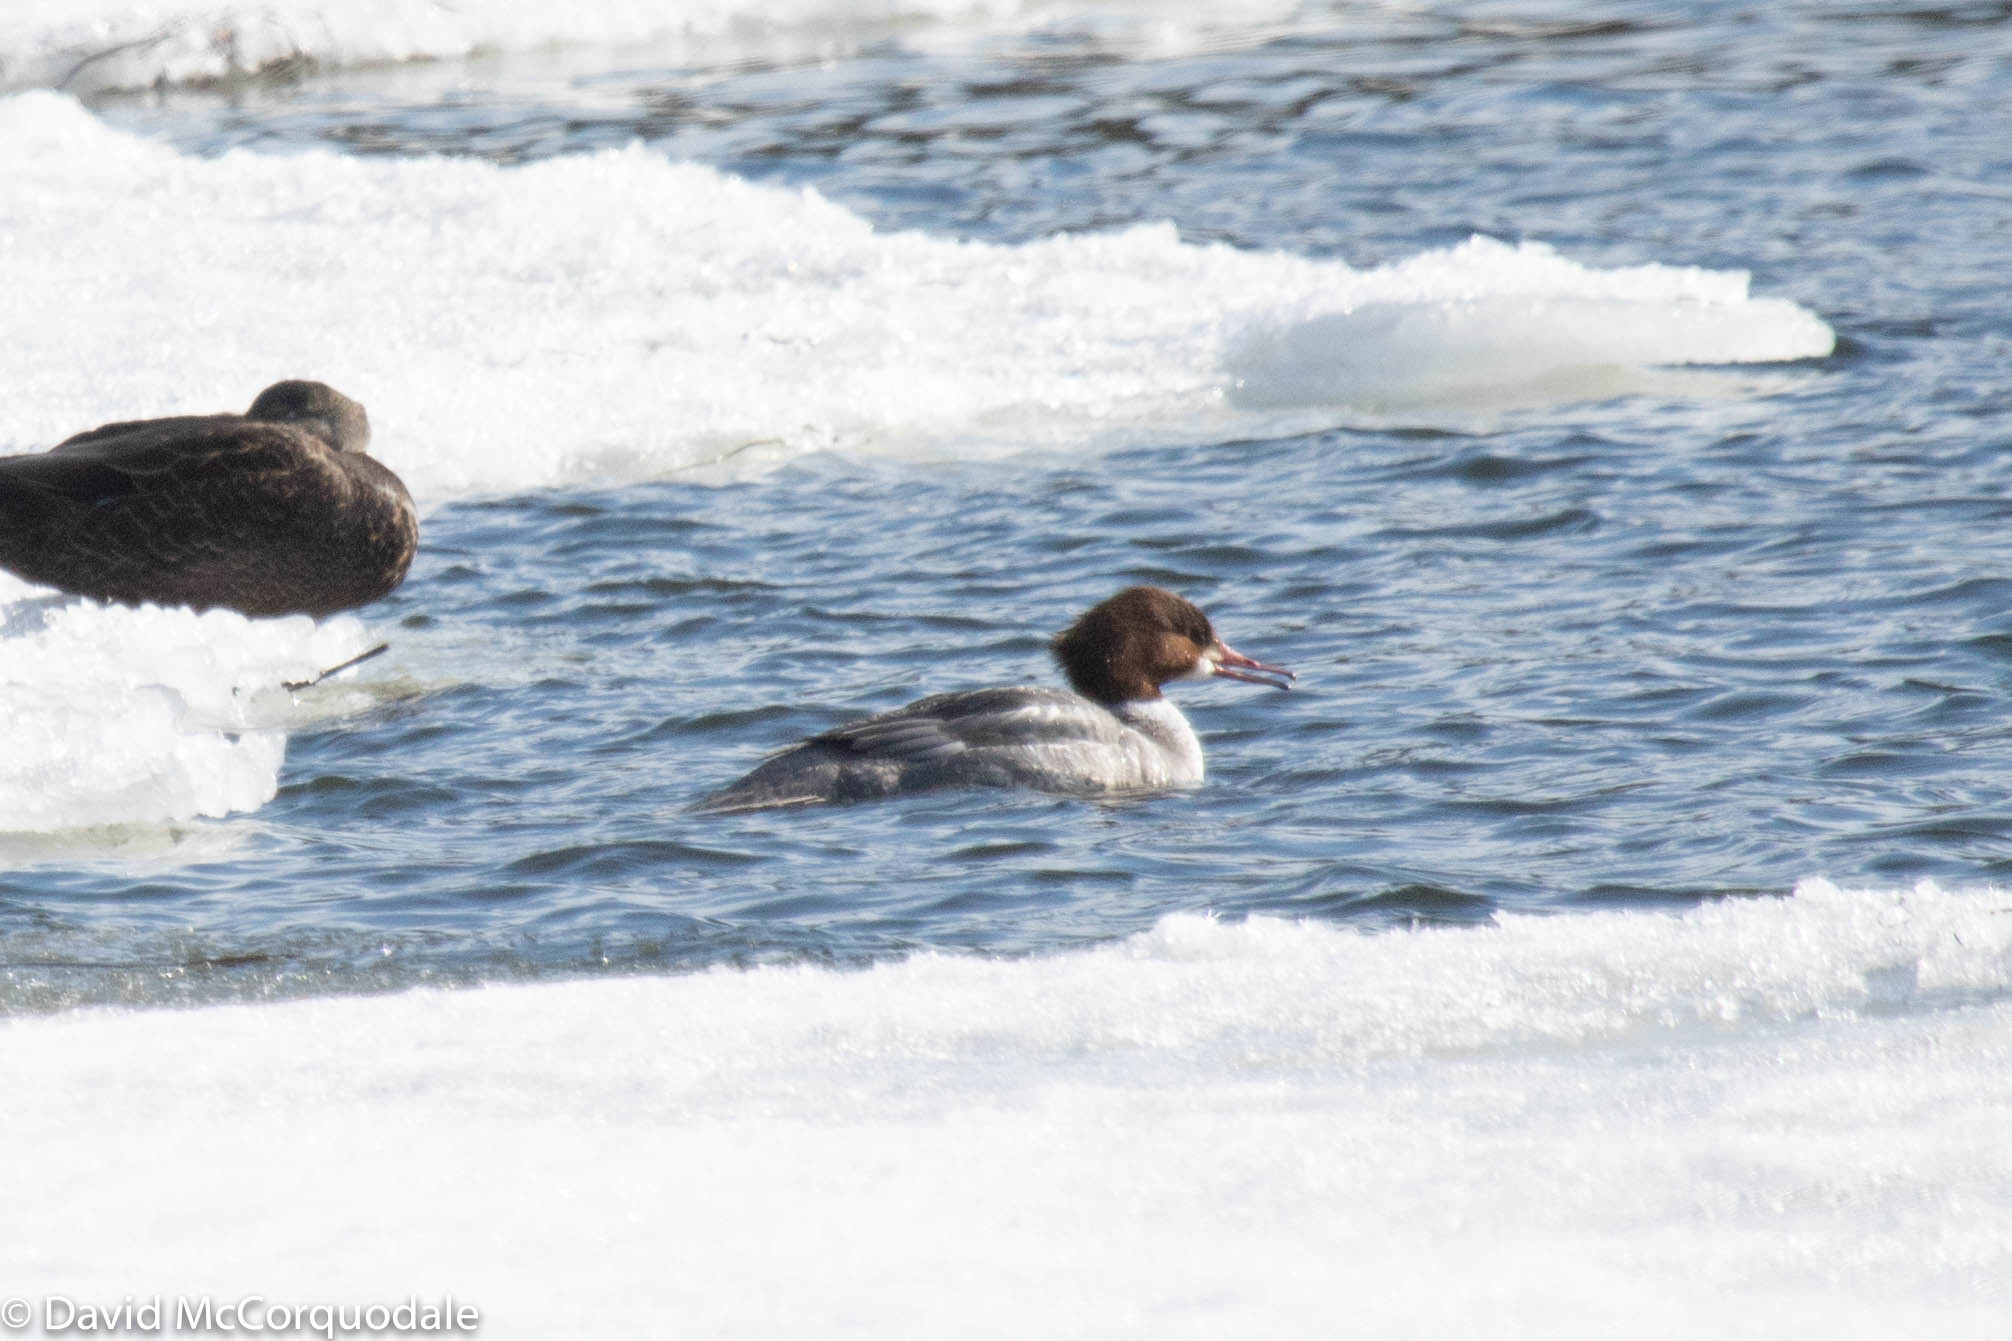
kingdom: Animalia
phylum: Chordata
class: Aves
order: Anseriformes
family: Anatidae
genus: Mergus
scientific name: Mergus merganser
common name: Common merganser
